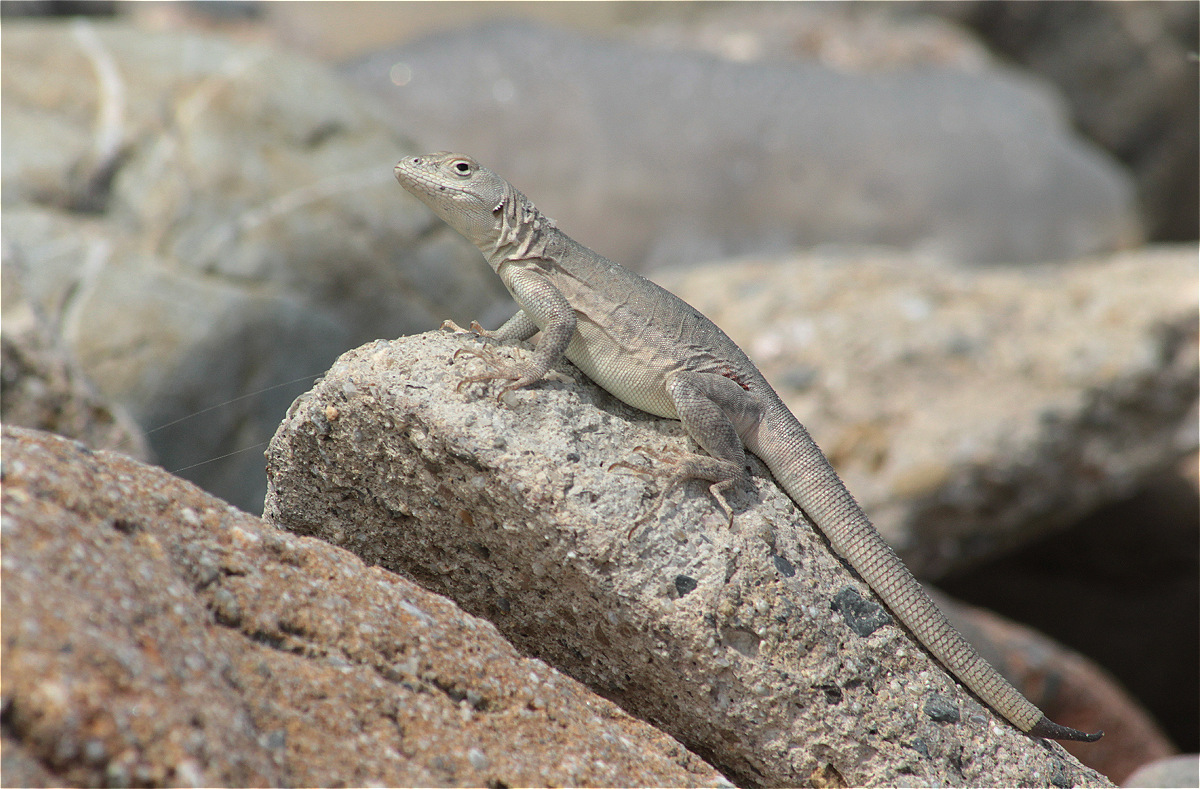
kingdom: Animalia
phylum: Chordata
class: Squamata
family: Tropiduridae
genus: Microlophus
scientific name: Microlophus peruvianus
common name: Peru pacific iguana
